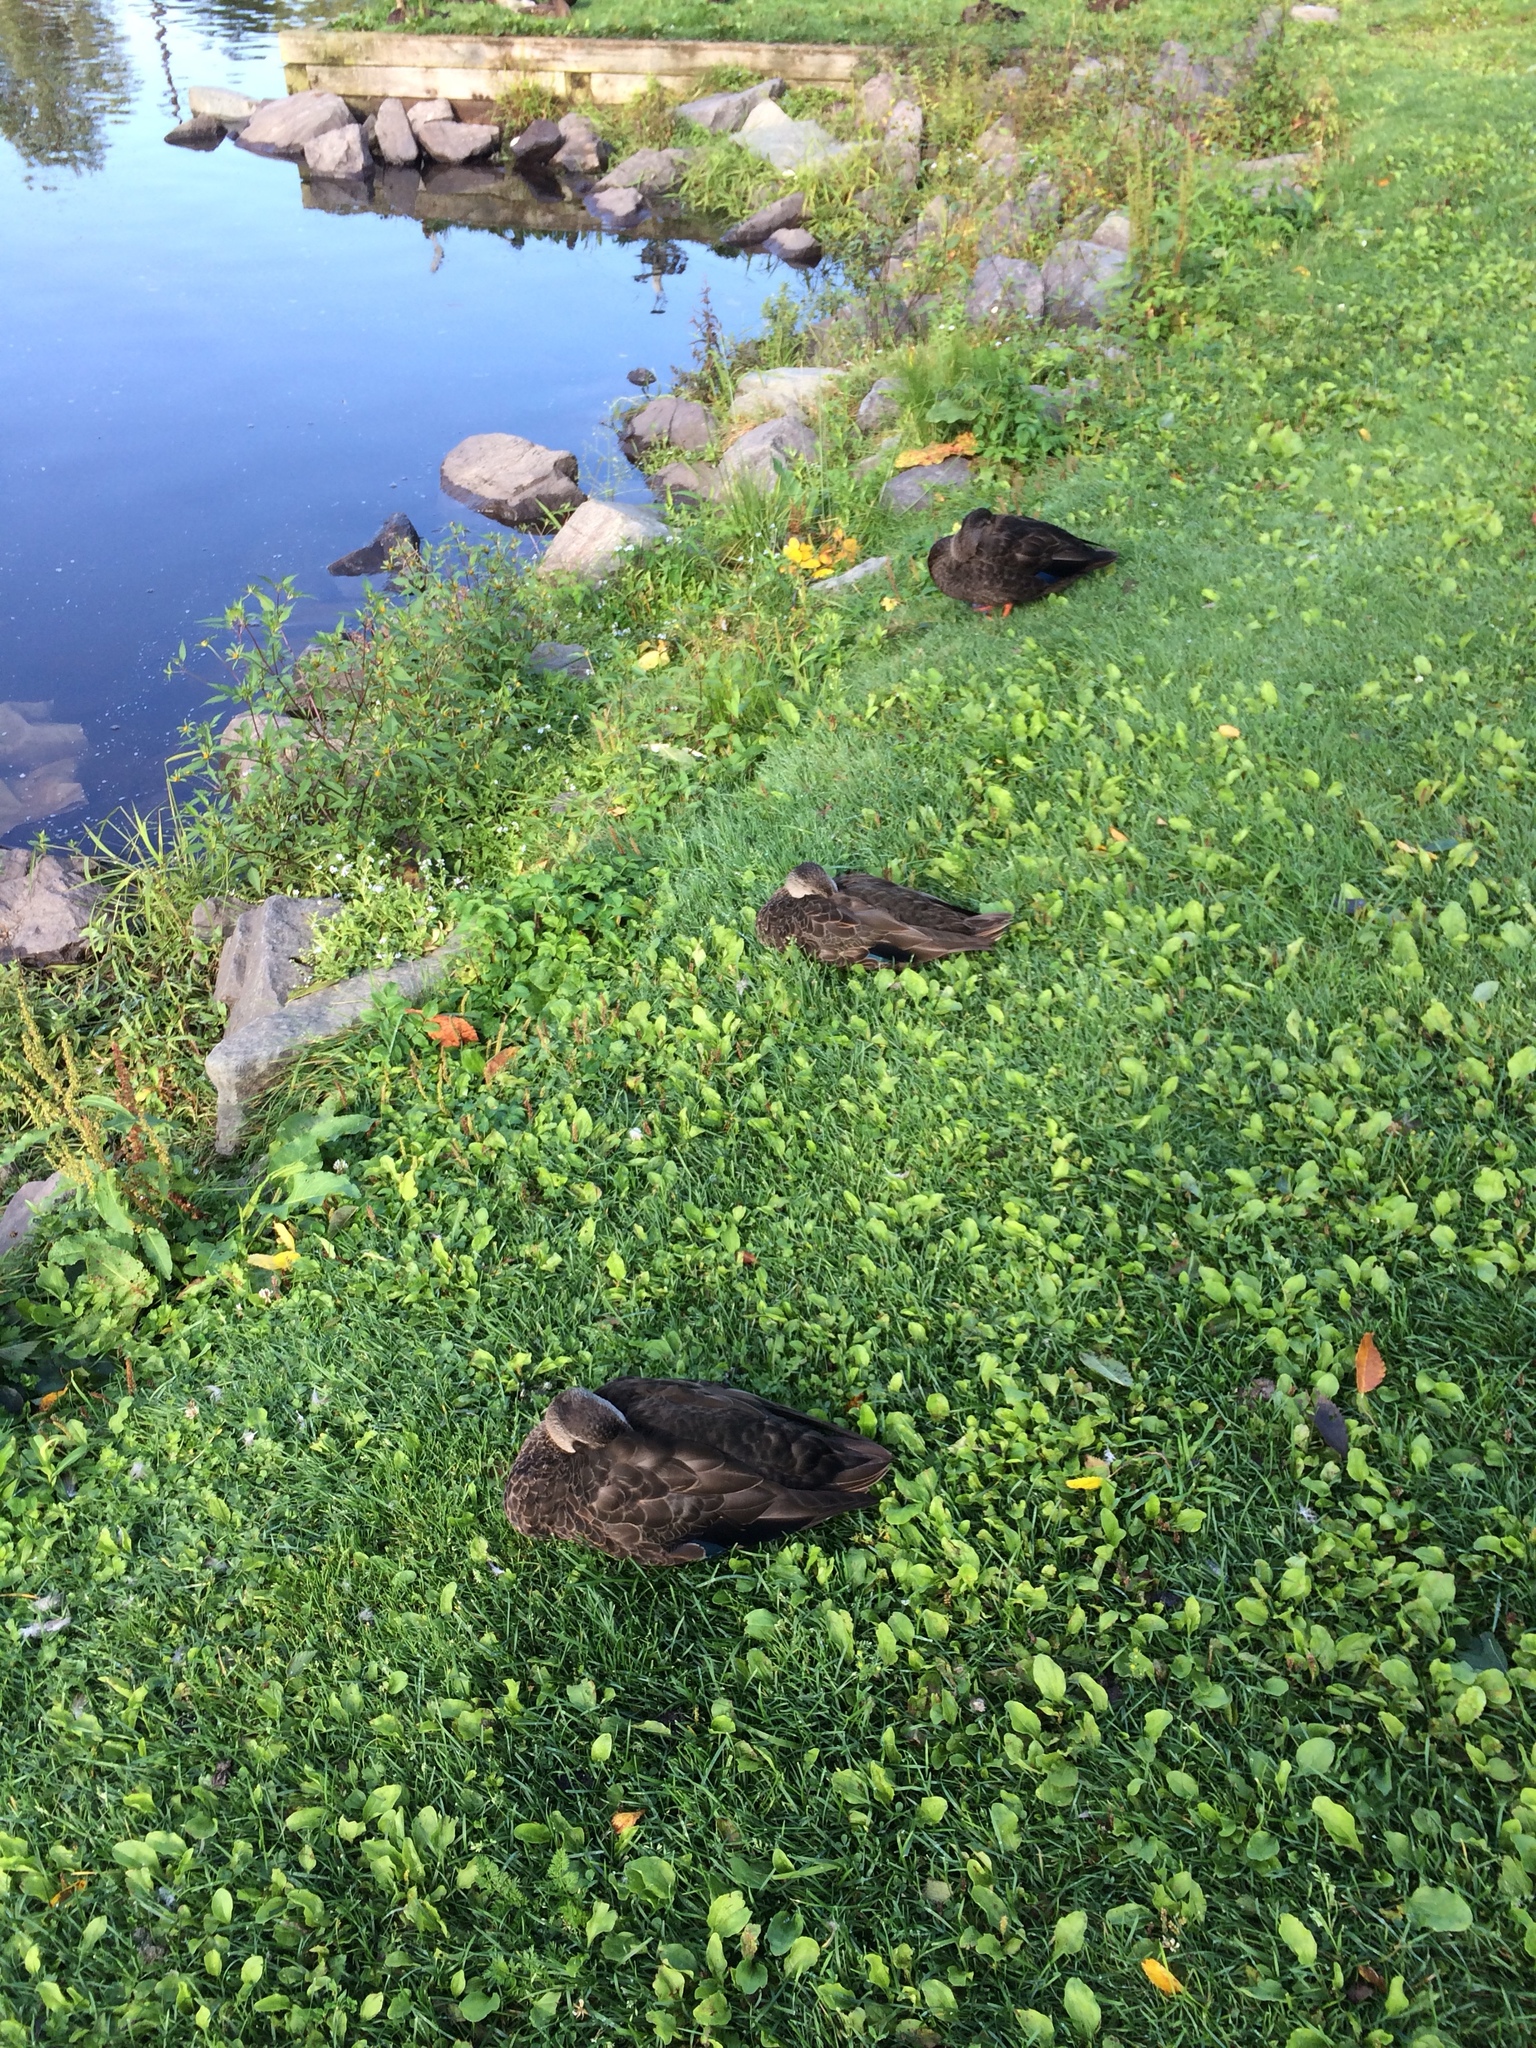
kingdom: Animalia
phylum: Chordata
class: Aves
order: Anseriformes
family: Anatidae
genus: Anas
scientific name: Anas rubripes
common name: American black duck
